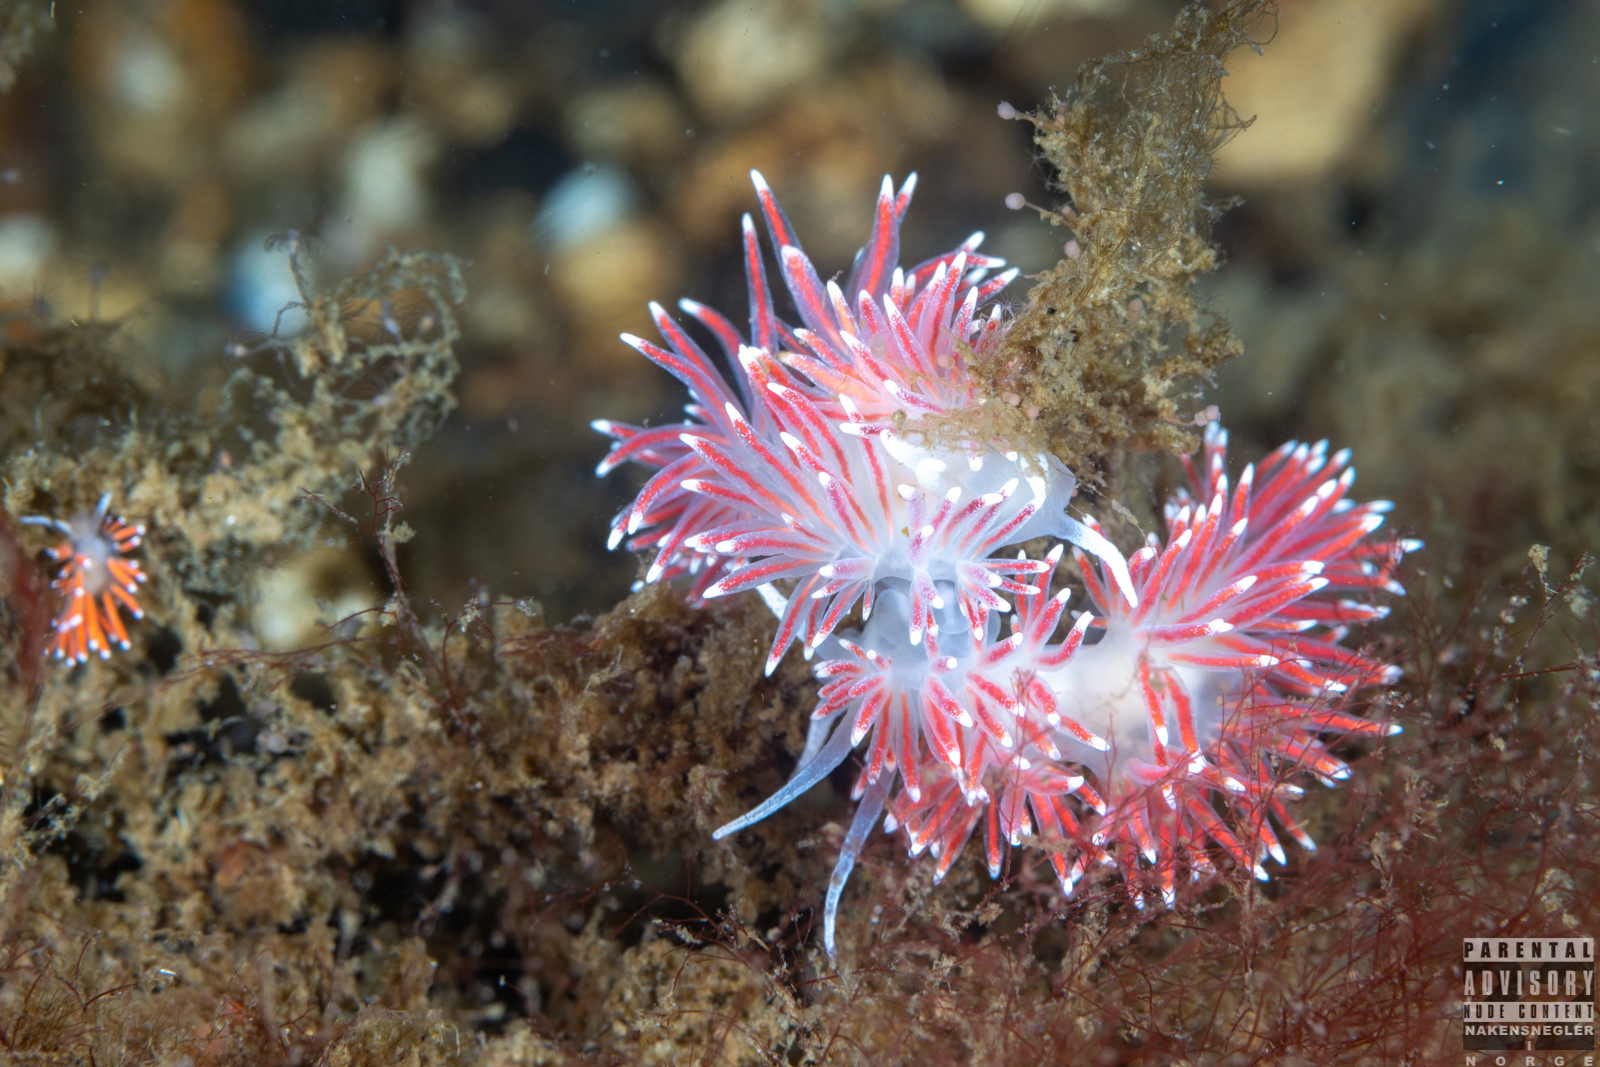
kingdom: Animalia
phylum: Mollusca
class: Gastropoda
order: Nudibranchia
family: Flabellinidae
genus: Carronella
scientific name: Carronella pellucida
